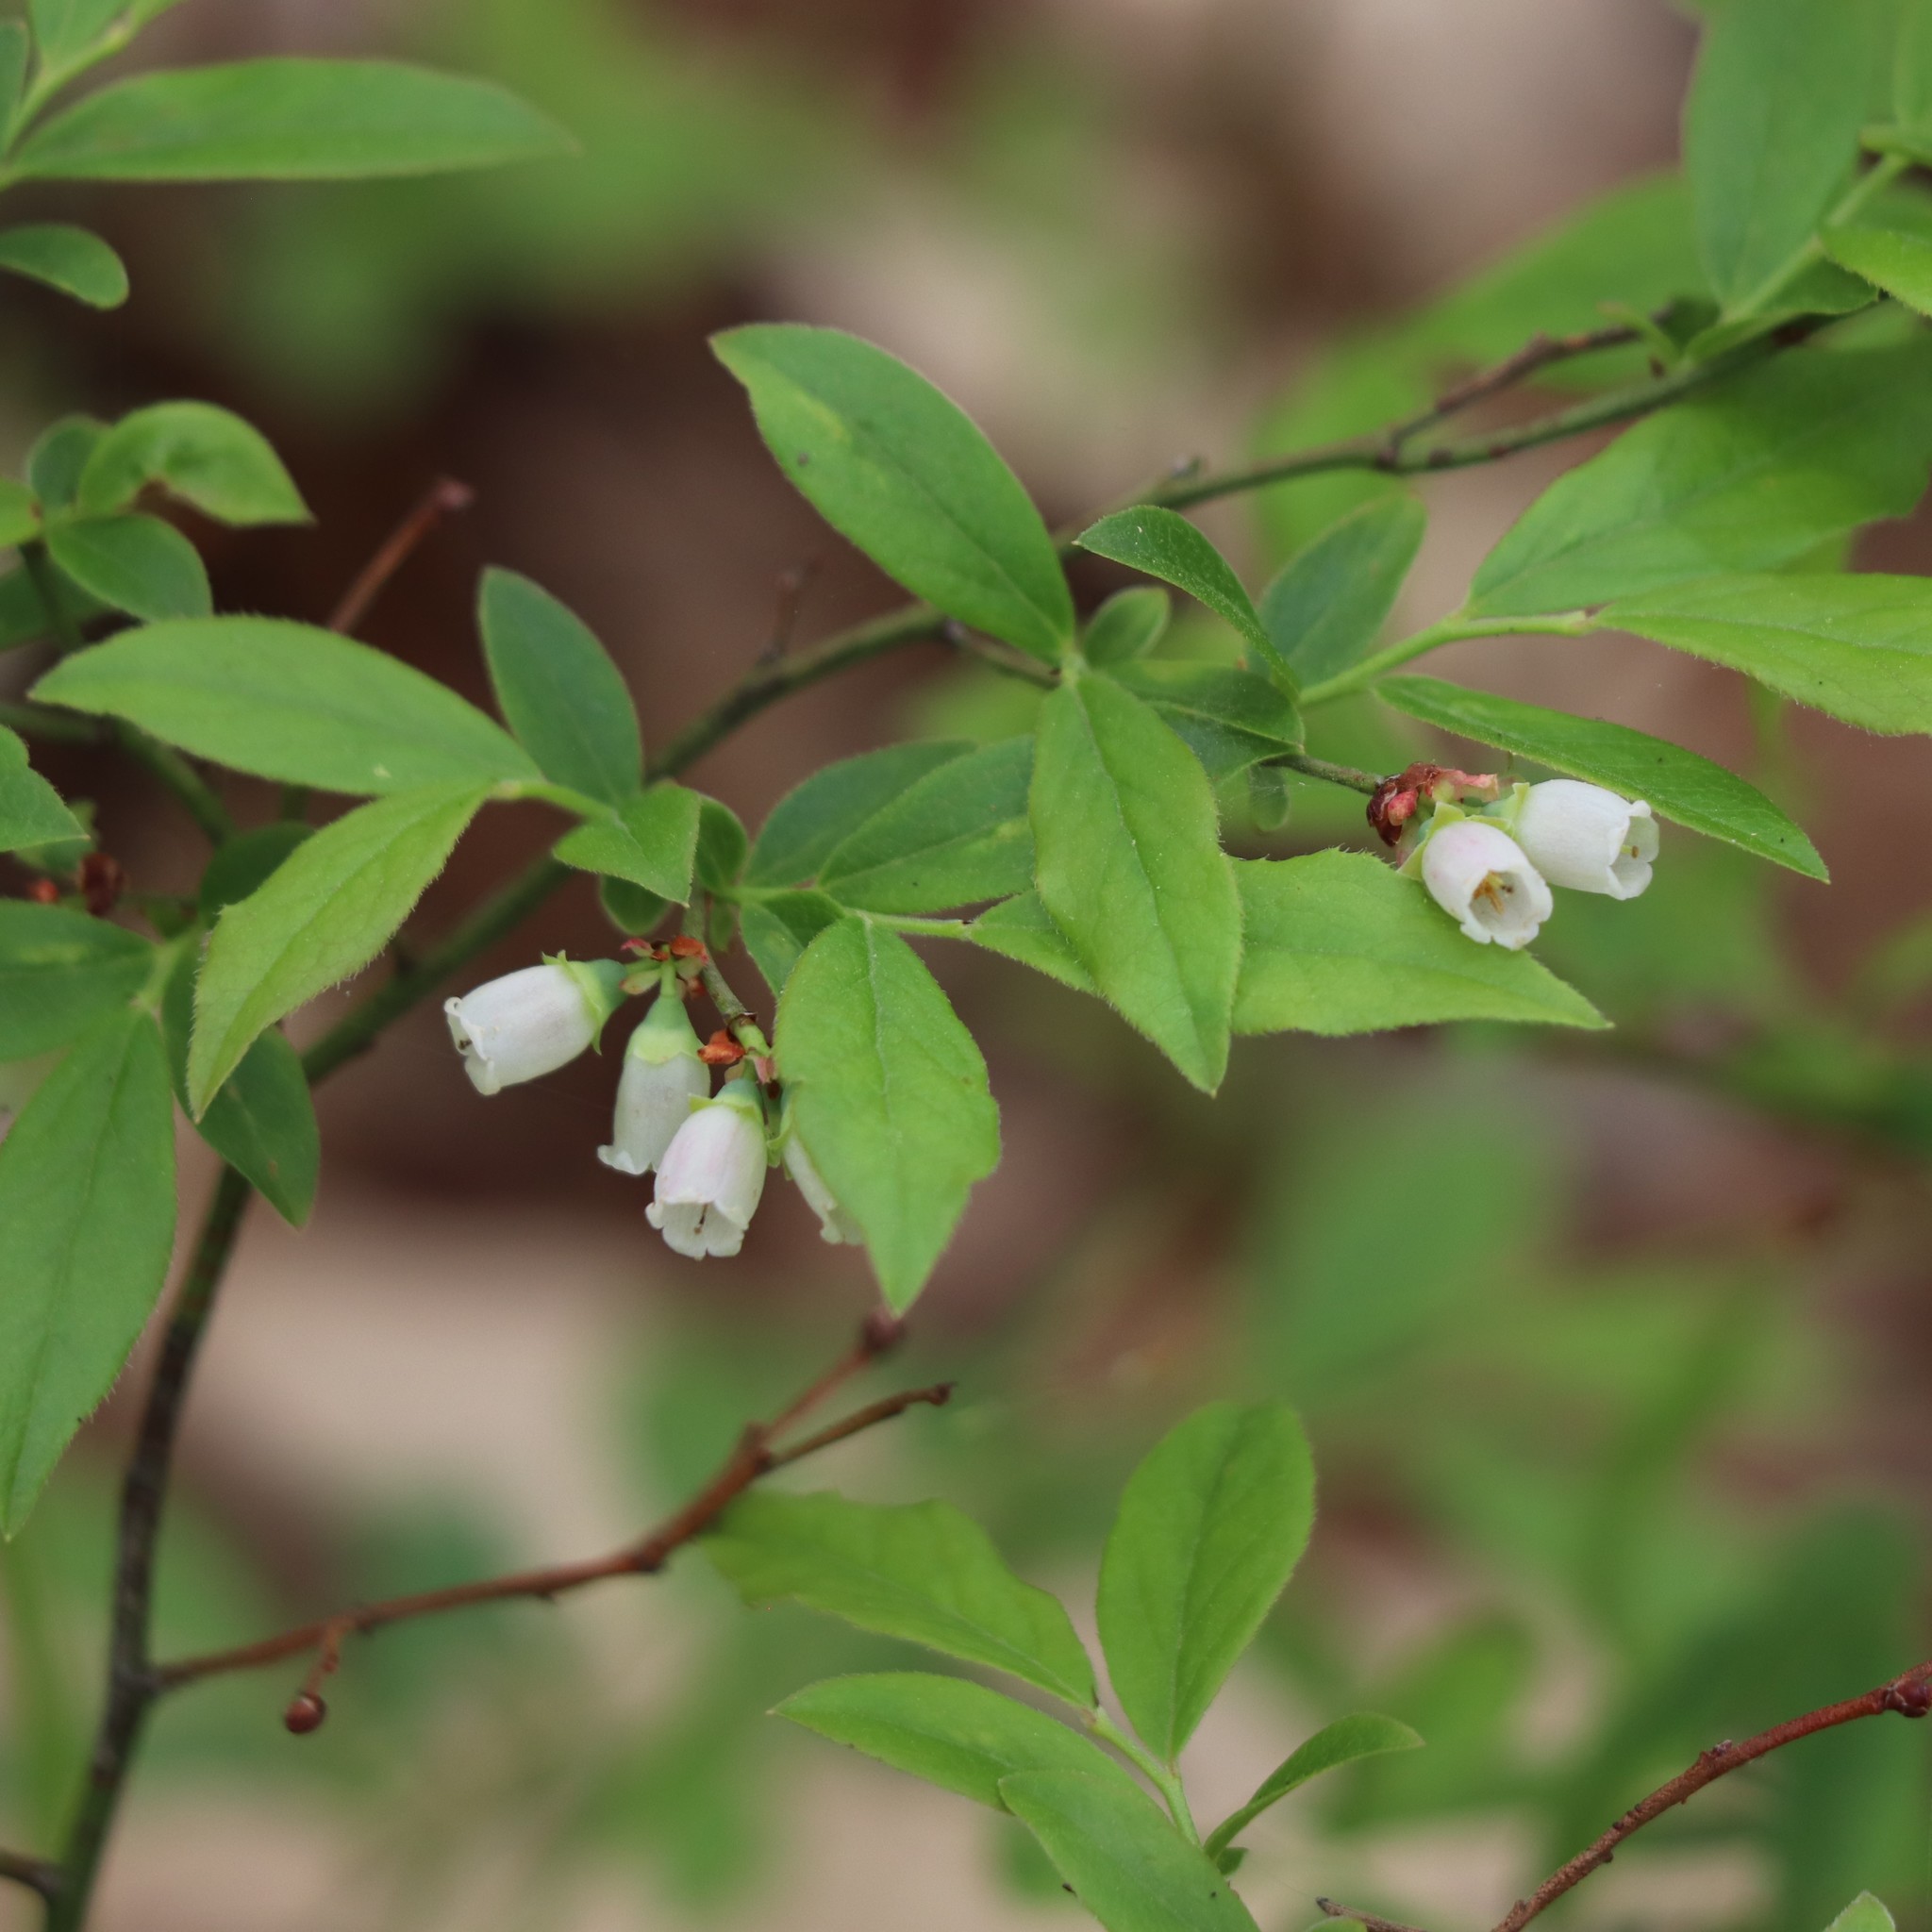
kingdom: Plantae
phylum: Tracheophyta
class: Magnoliopsida
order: Ericales
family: Ericaceae
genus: Vaccinium
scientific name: Vaccinium angustifolium
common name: Early lowbush blueberry
